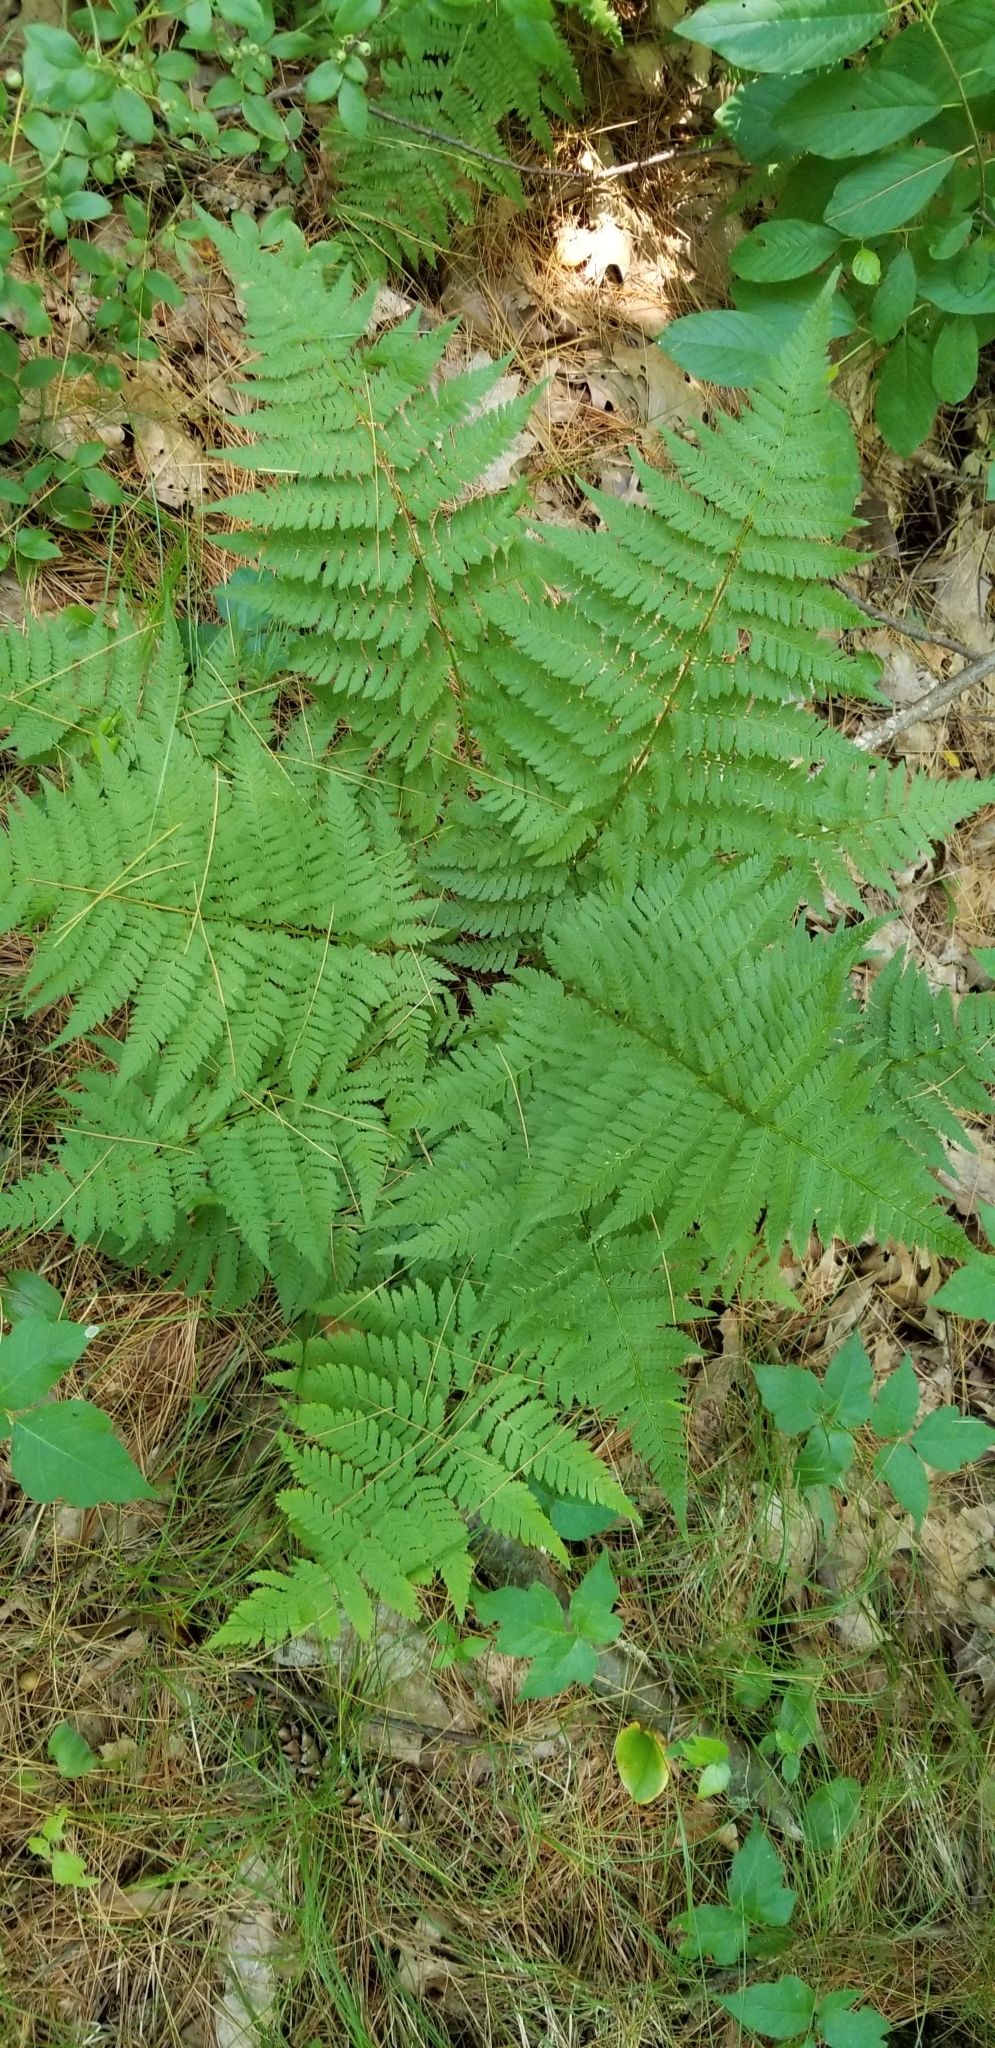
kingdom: Plantae
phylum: Tracheophyta
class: Polypodiopsida
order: Polypodiales
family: Dryopteridaceae
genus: Dryopteris
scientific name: Dryopteris carthusiana
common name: Narrow buckler-fern
